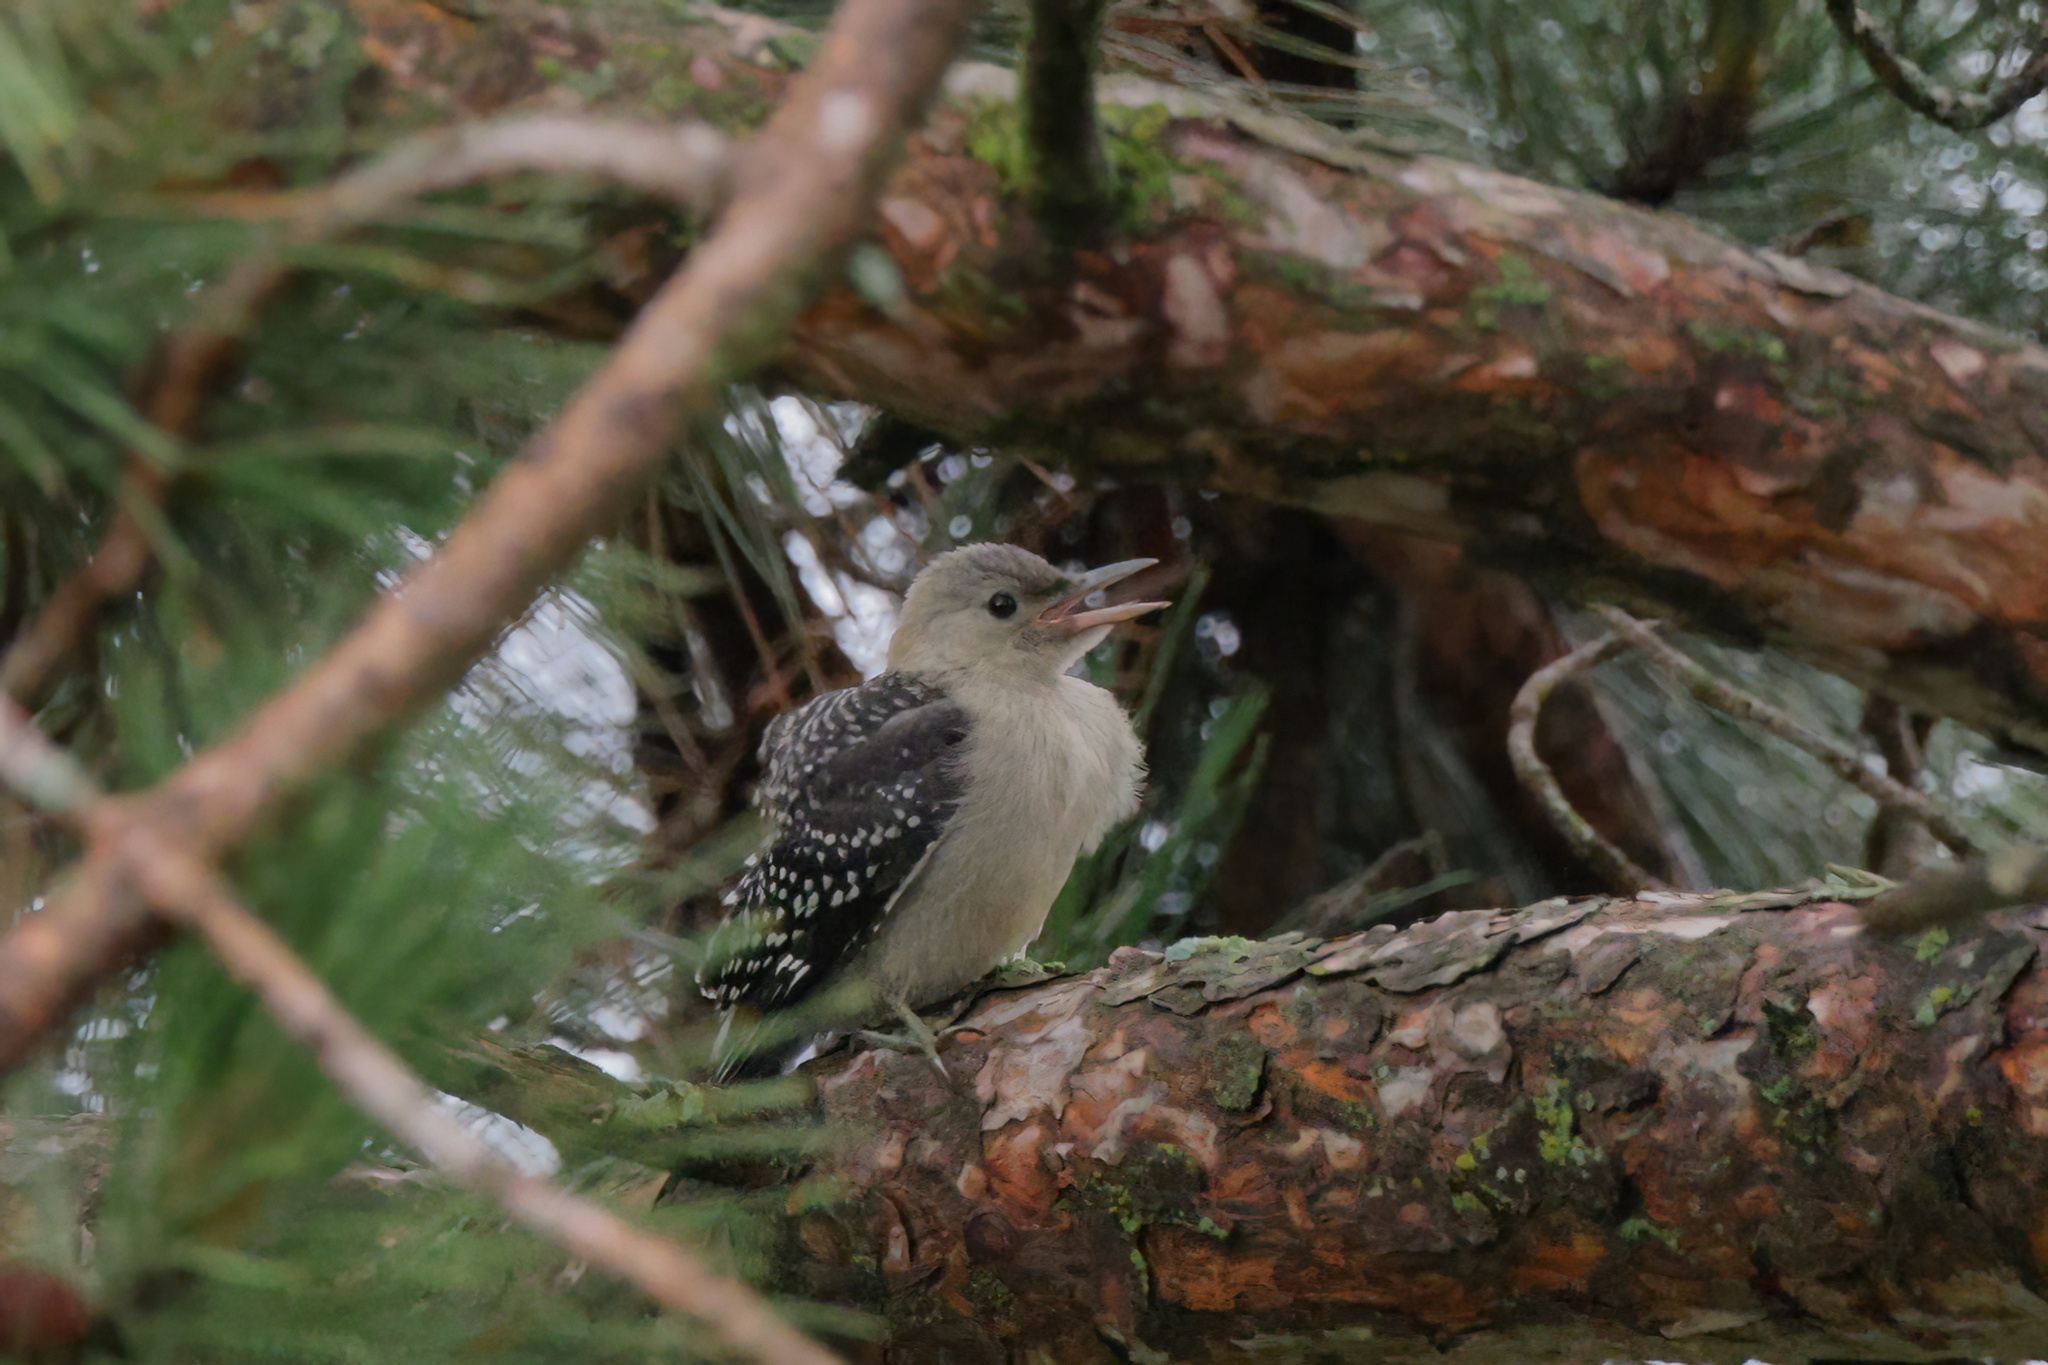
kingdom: Animalia
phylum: Chordata
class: Aves
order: Piciformes
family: Picidae
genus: Melanerpes
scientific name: Melanerpes carolinus
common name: Red-bellied woodpecker
